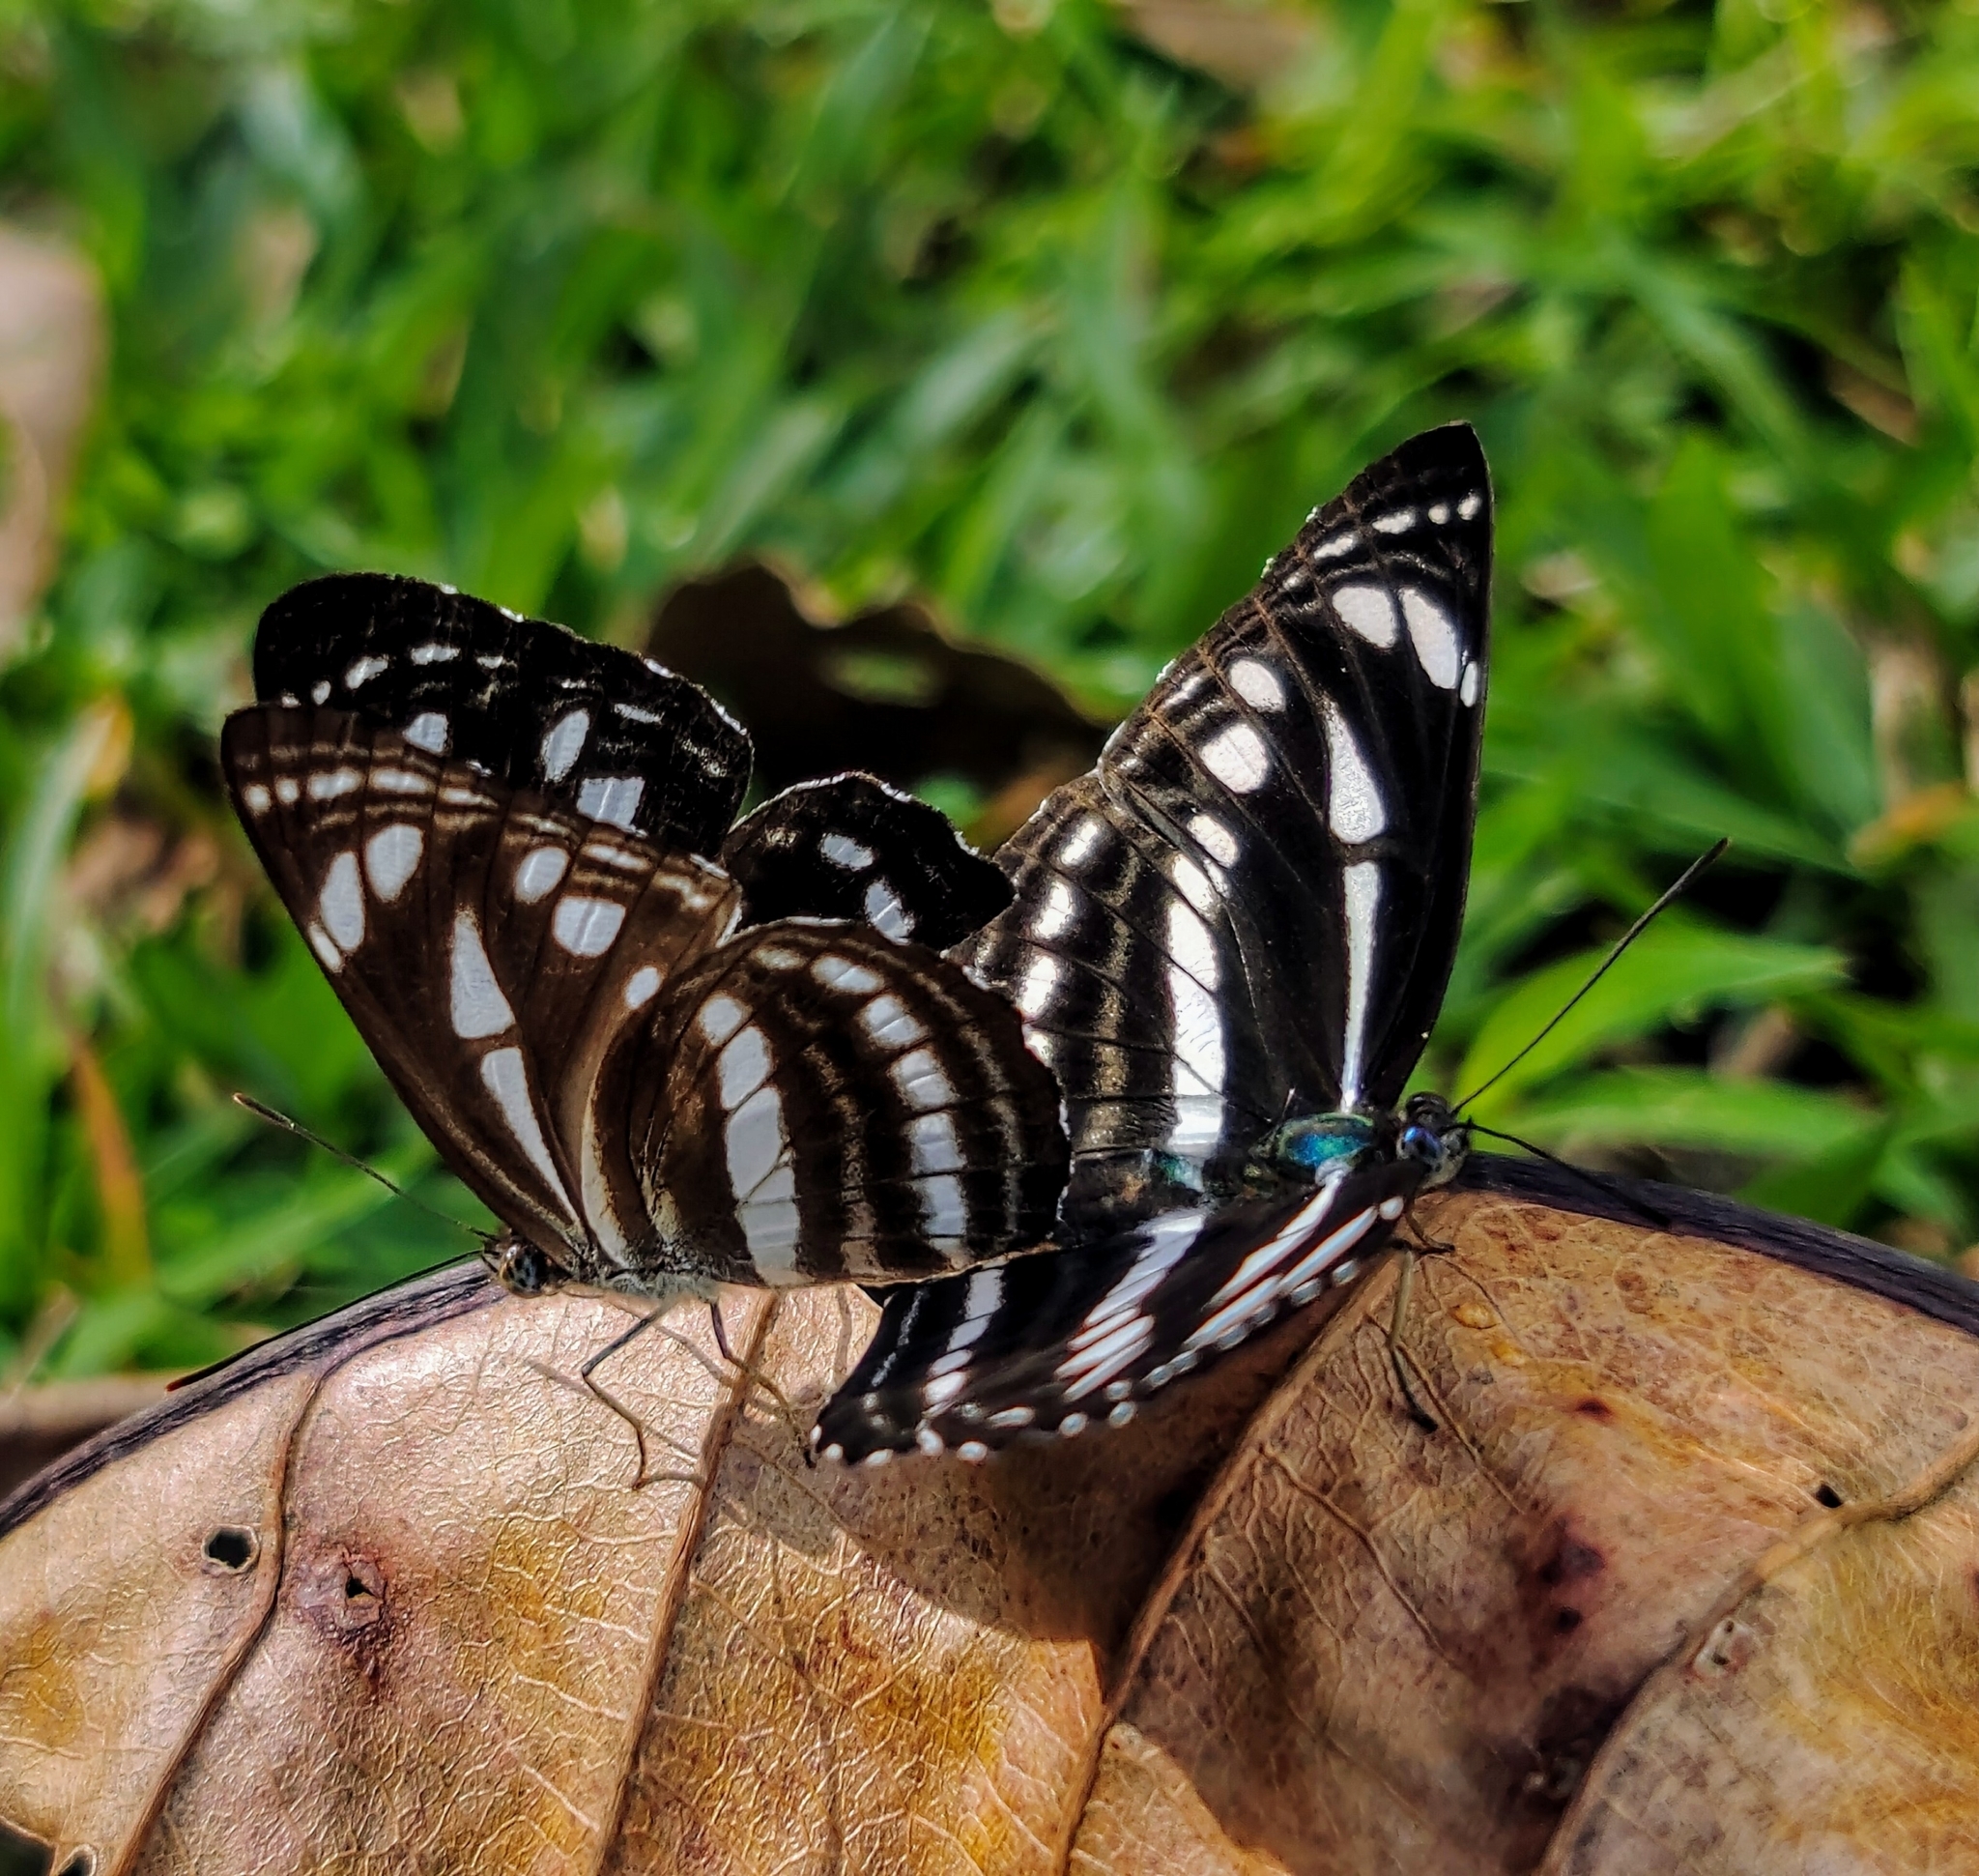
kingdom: Animalia
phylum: Arthropoda
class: Insecta
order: Lepidoptera
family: Nymphalidae
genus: Neptis
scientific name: Neptis leucoporos
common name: Grey sailer
